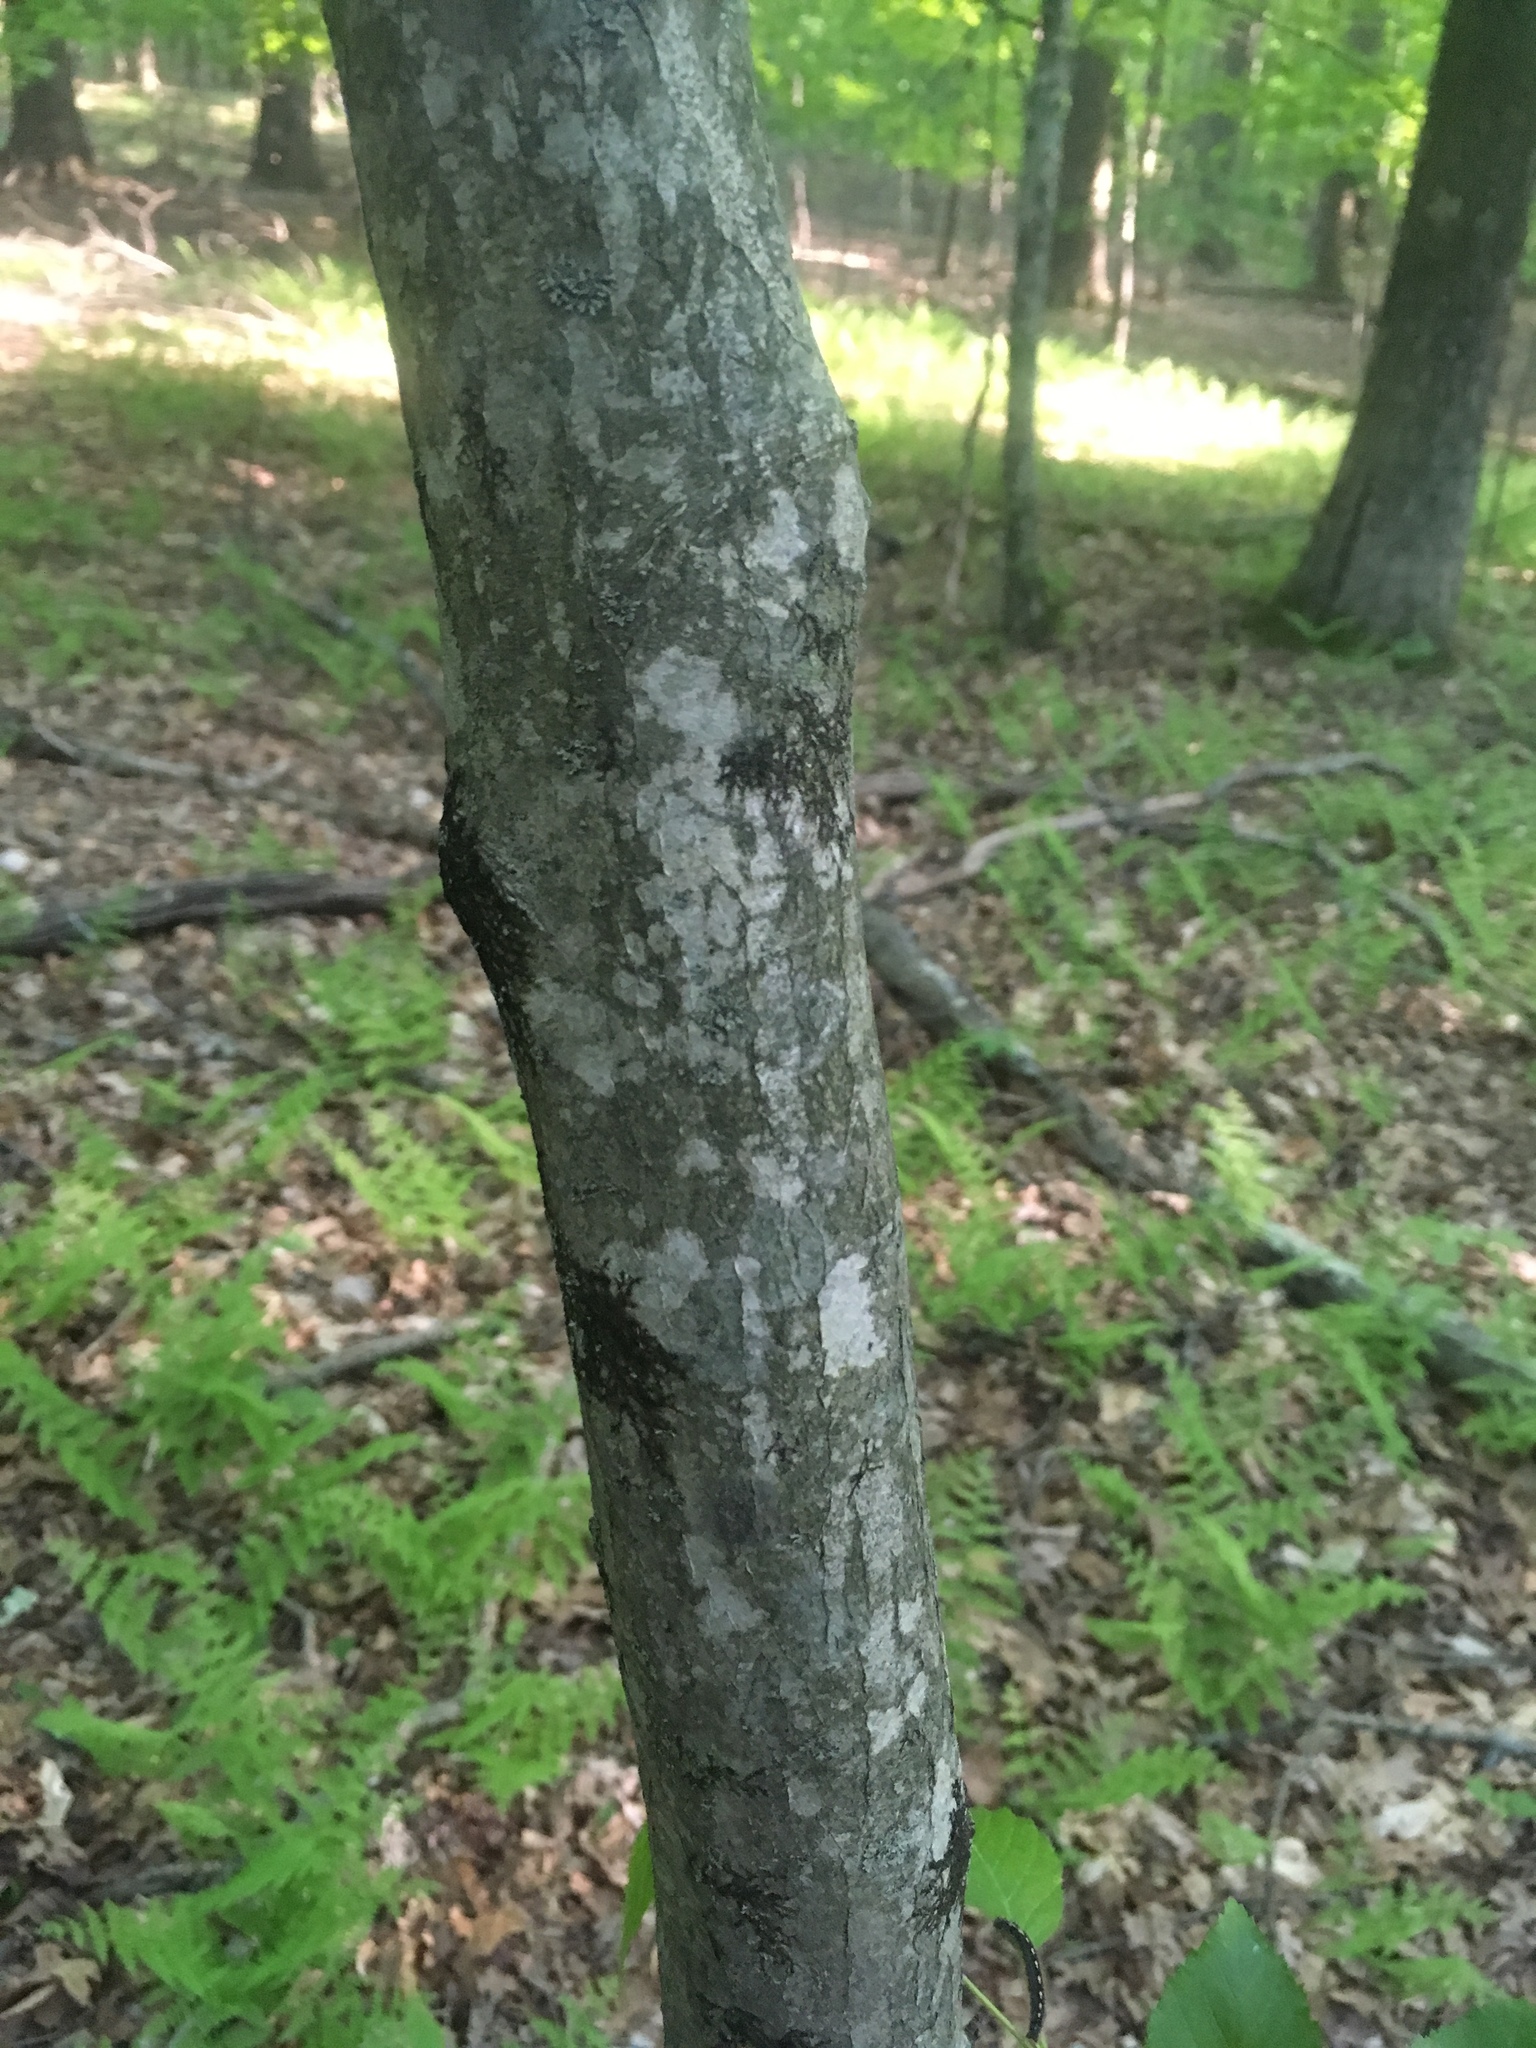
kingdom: Plantae
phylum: Tracheophyta
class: Magnoliopsida
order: Fagales
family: Betulaceae
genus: Carpinus
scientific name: Carpinus caroliniana
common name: American hornbeam
